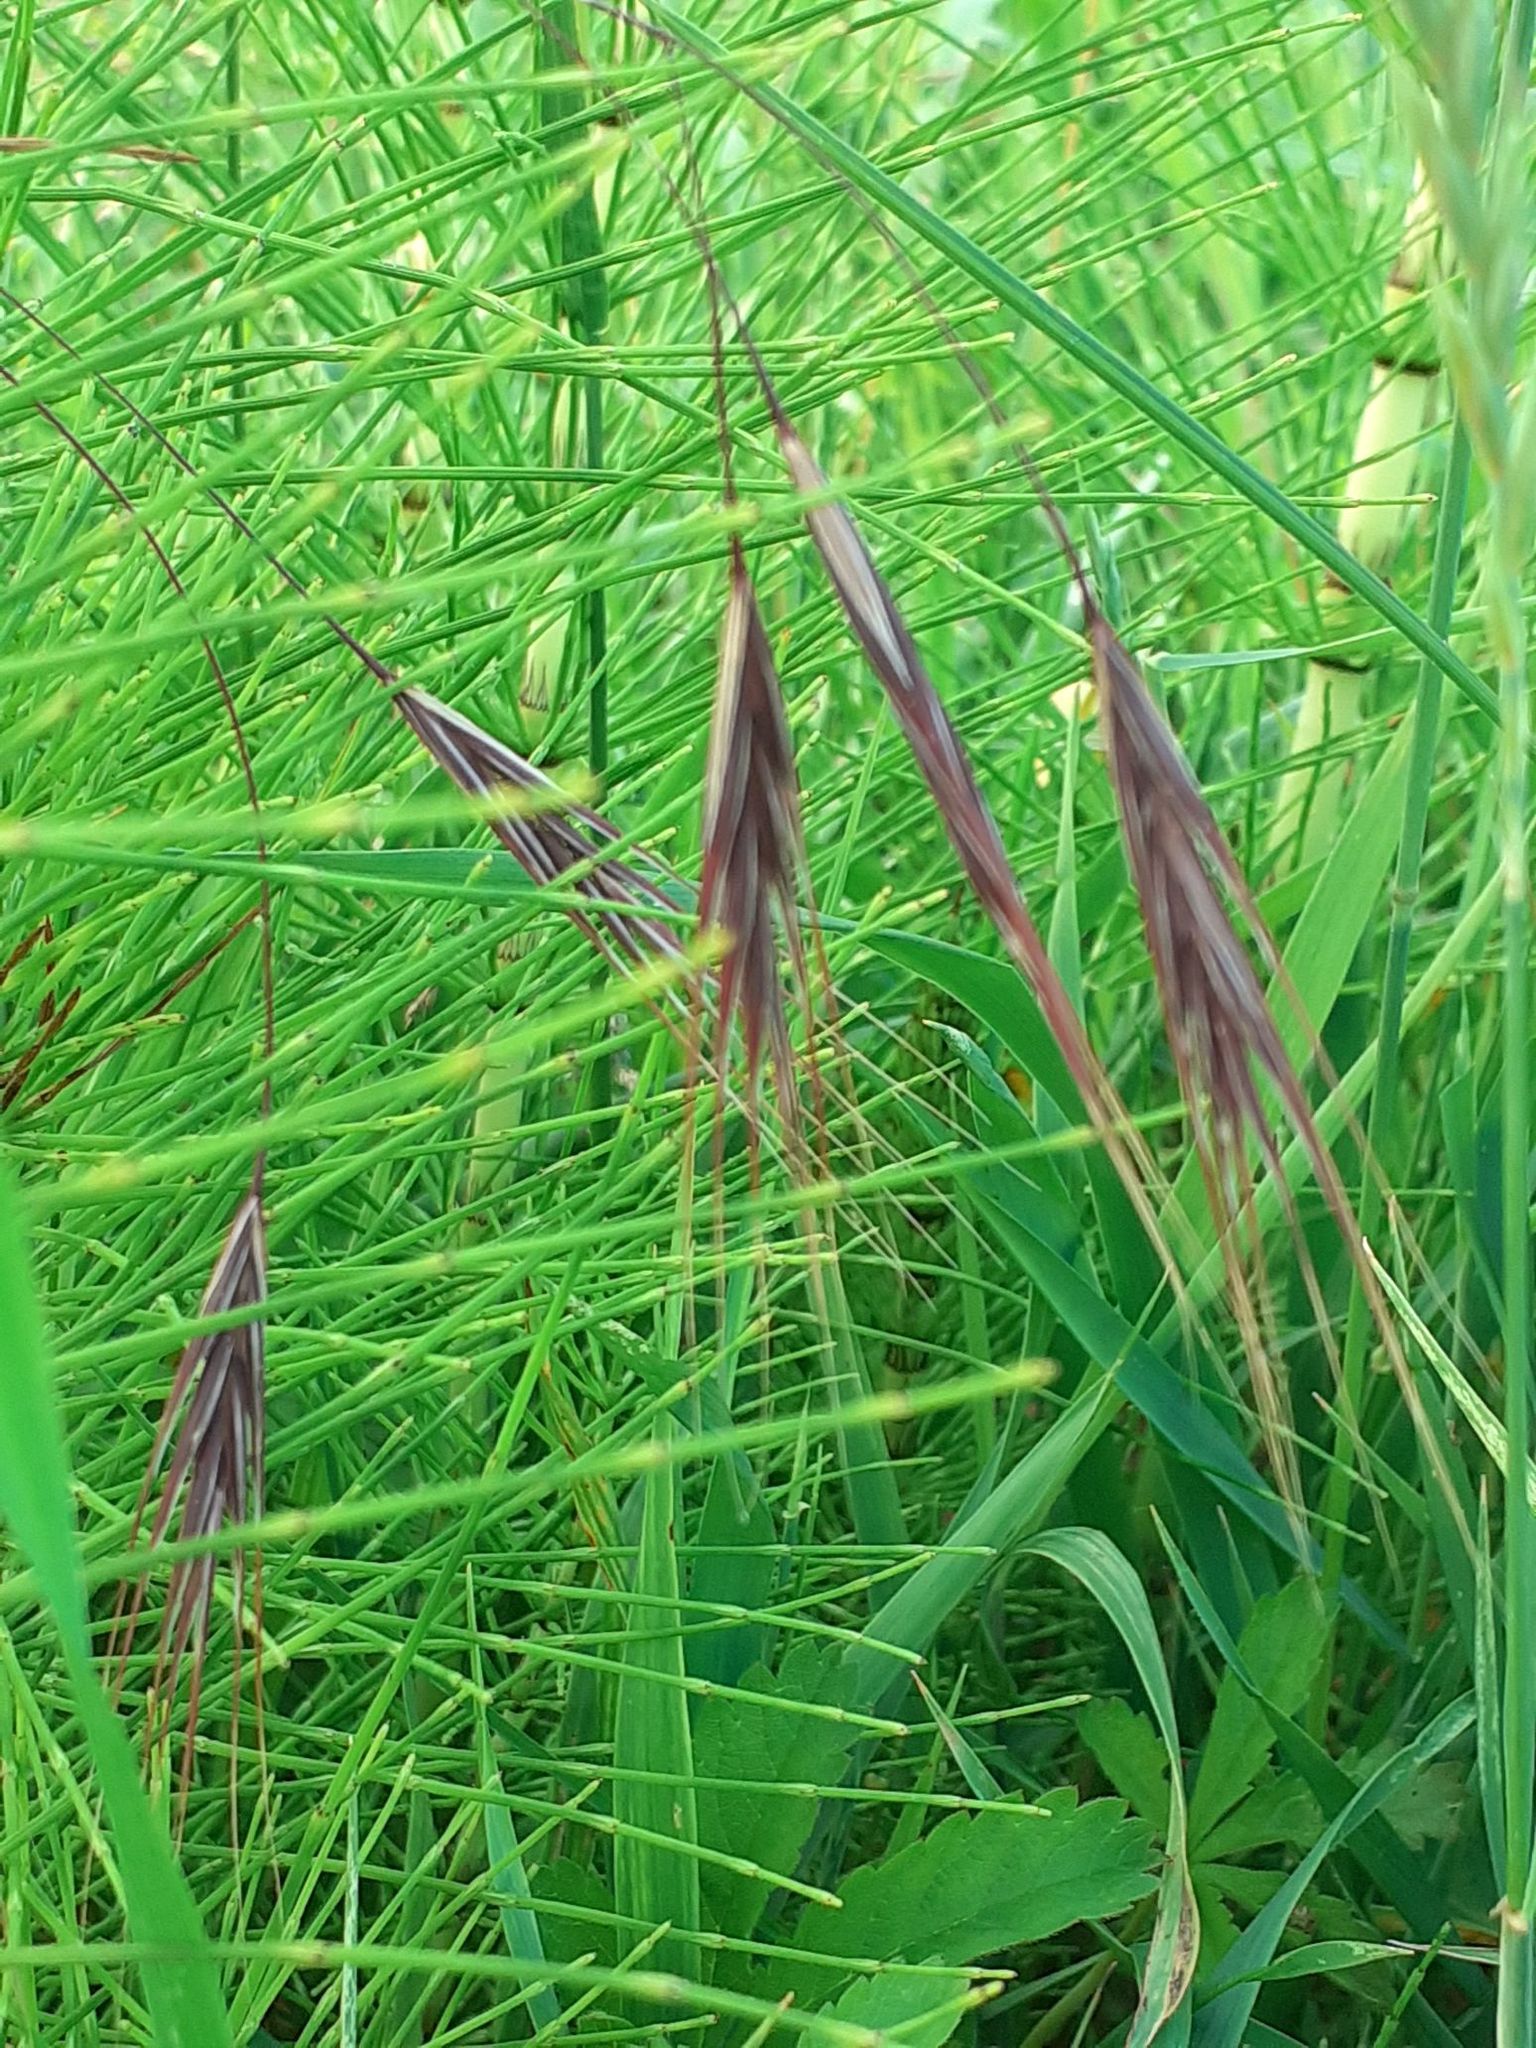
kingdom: Plantae
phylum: Tracheophyta
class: Liliopsida
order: Poales
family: Poaceae
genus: Bromus
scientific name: Bromus sterilis
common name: Poverty brome
